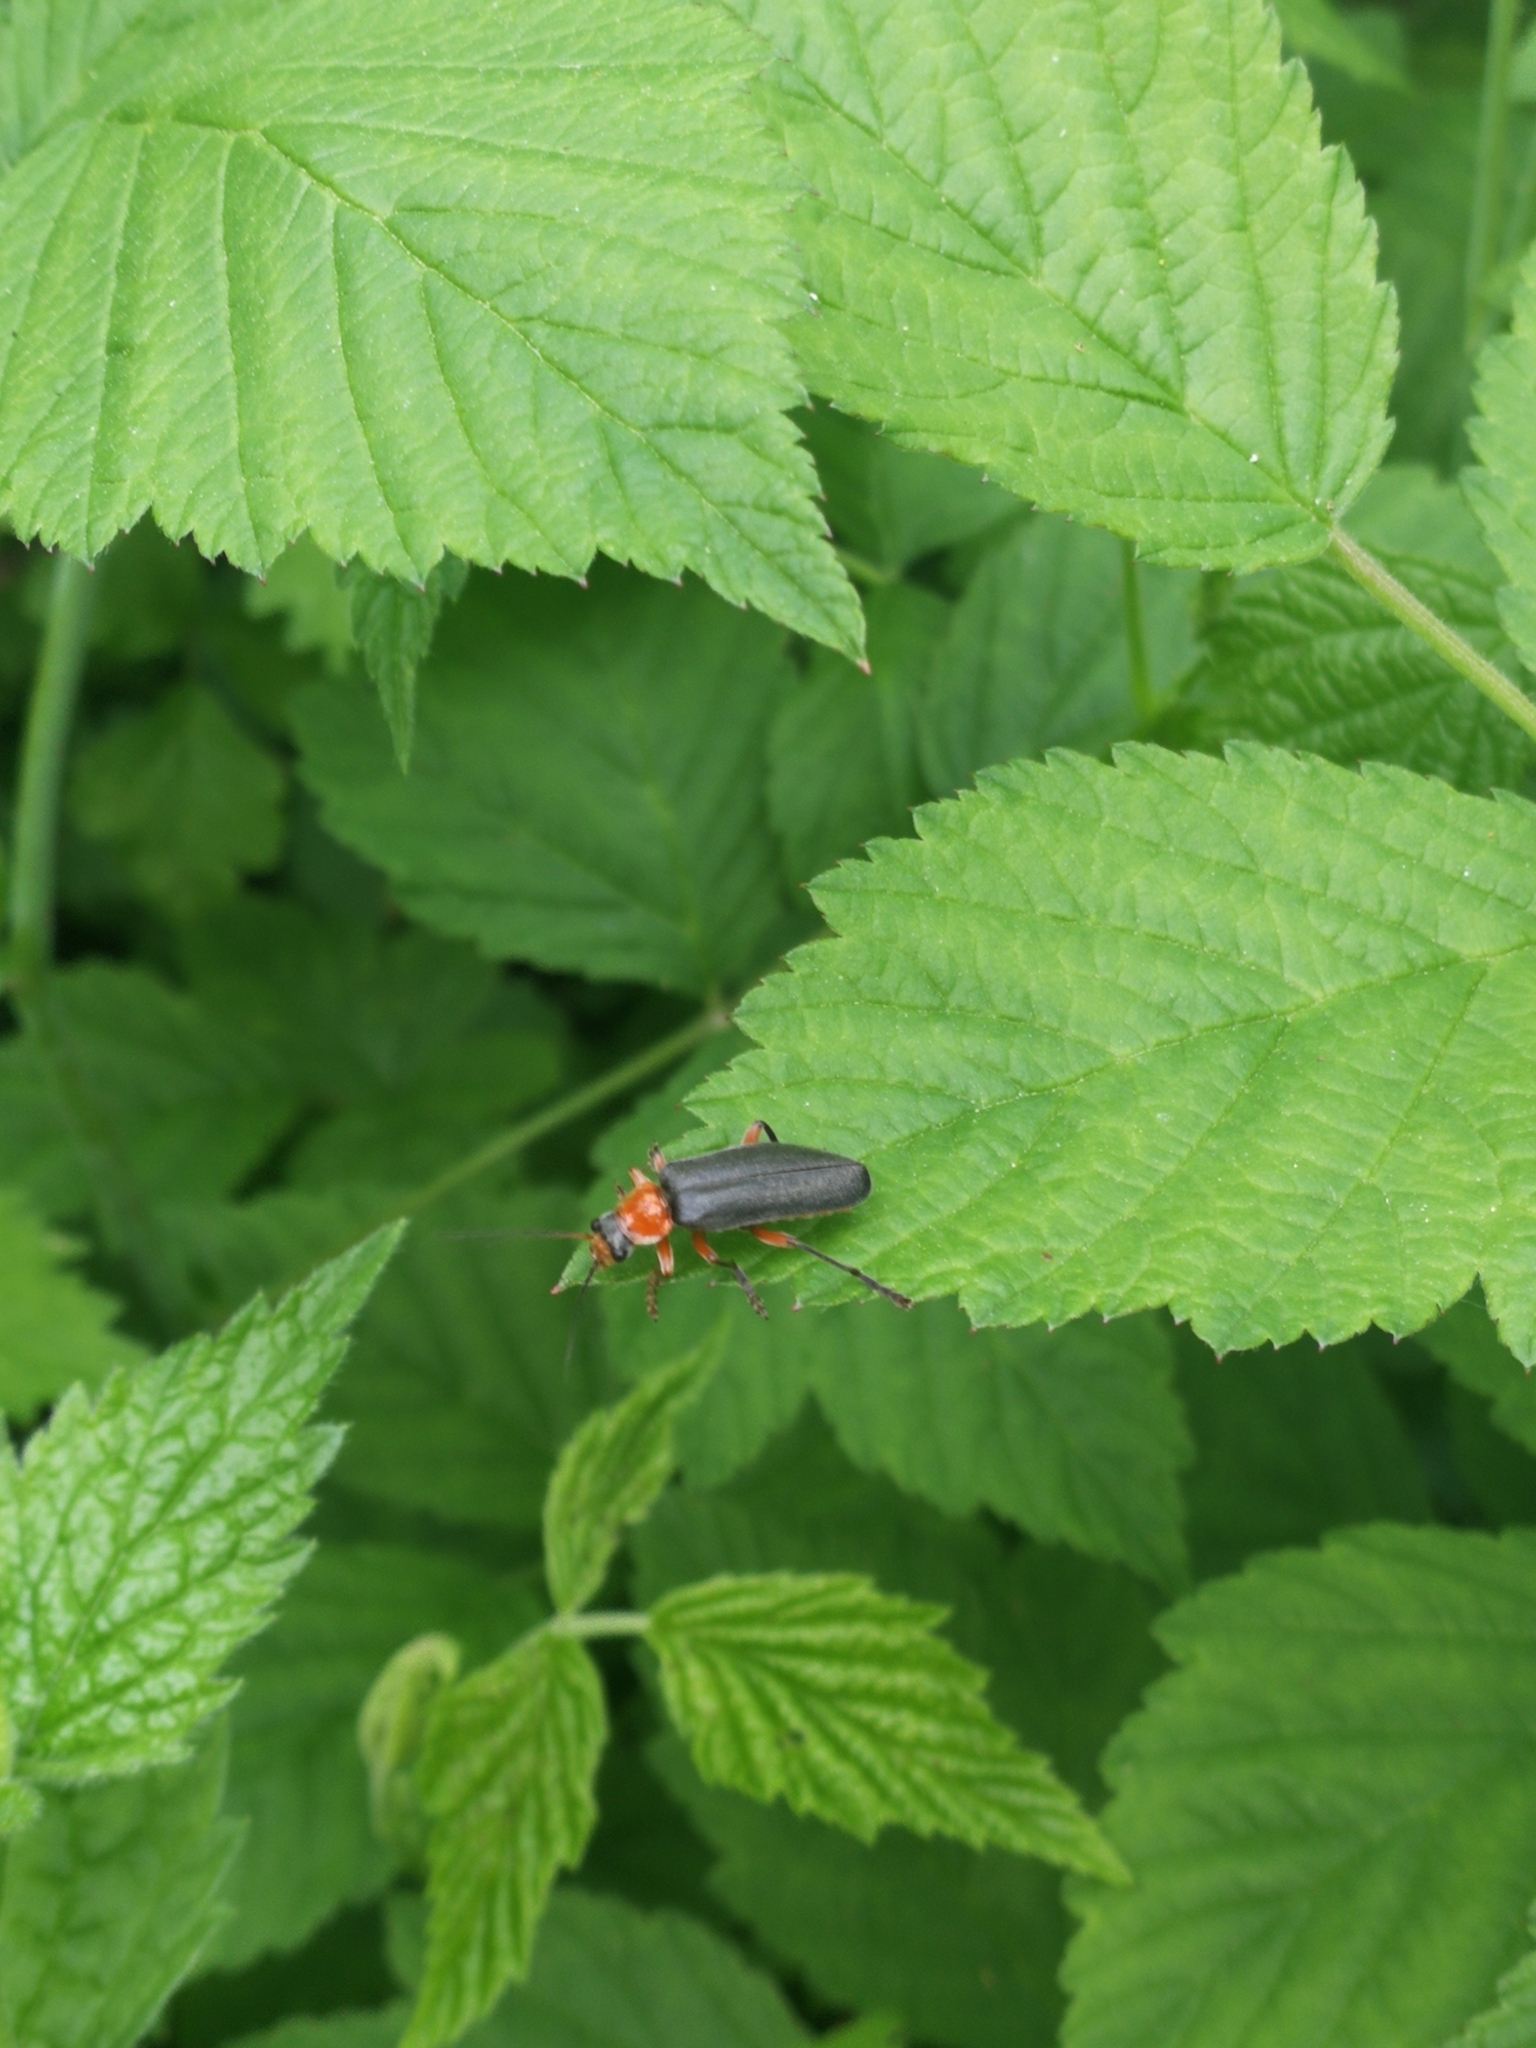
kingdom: Animalia
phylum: Arthropoda
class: Insecta
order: Coleoptera
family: Cantharidae
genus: Cantharis
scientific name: Cantharis pellucida
